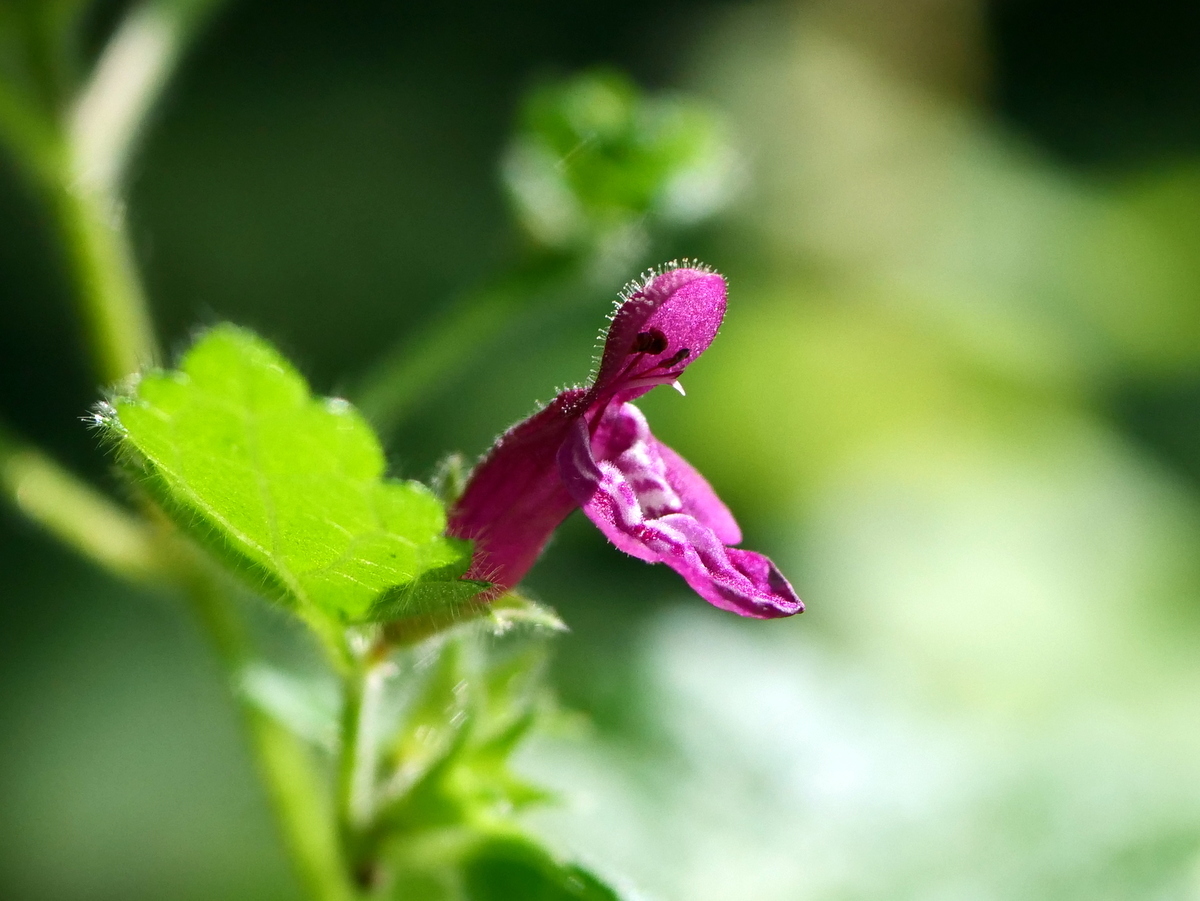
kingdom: Plantae
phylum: Tracheophyta
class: Magnoliopsida
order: Lamiales
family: Lamiaceae
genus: Stachys
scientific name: Stachys sylvatica
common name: Hedge woundwort
